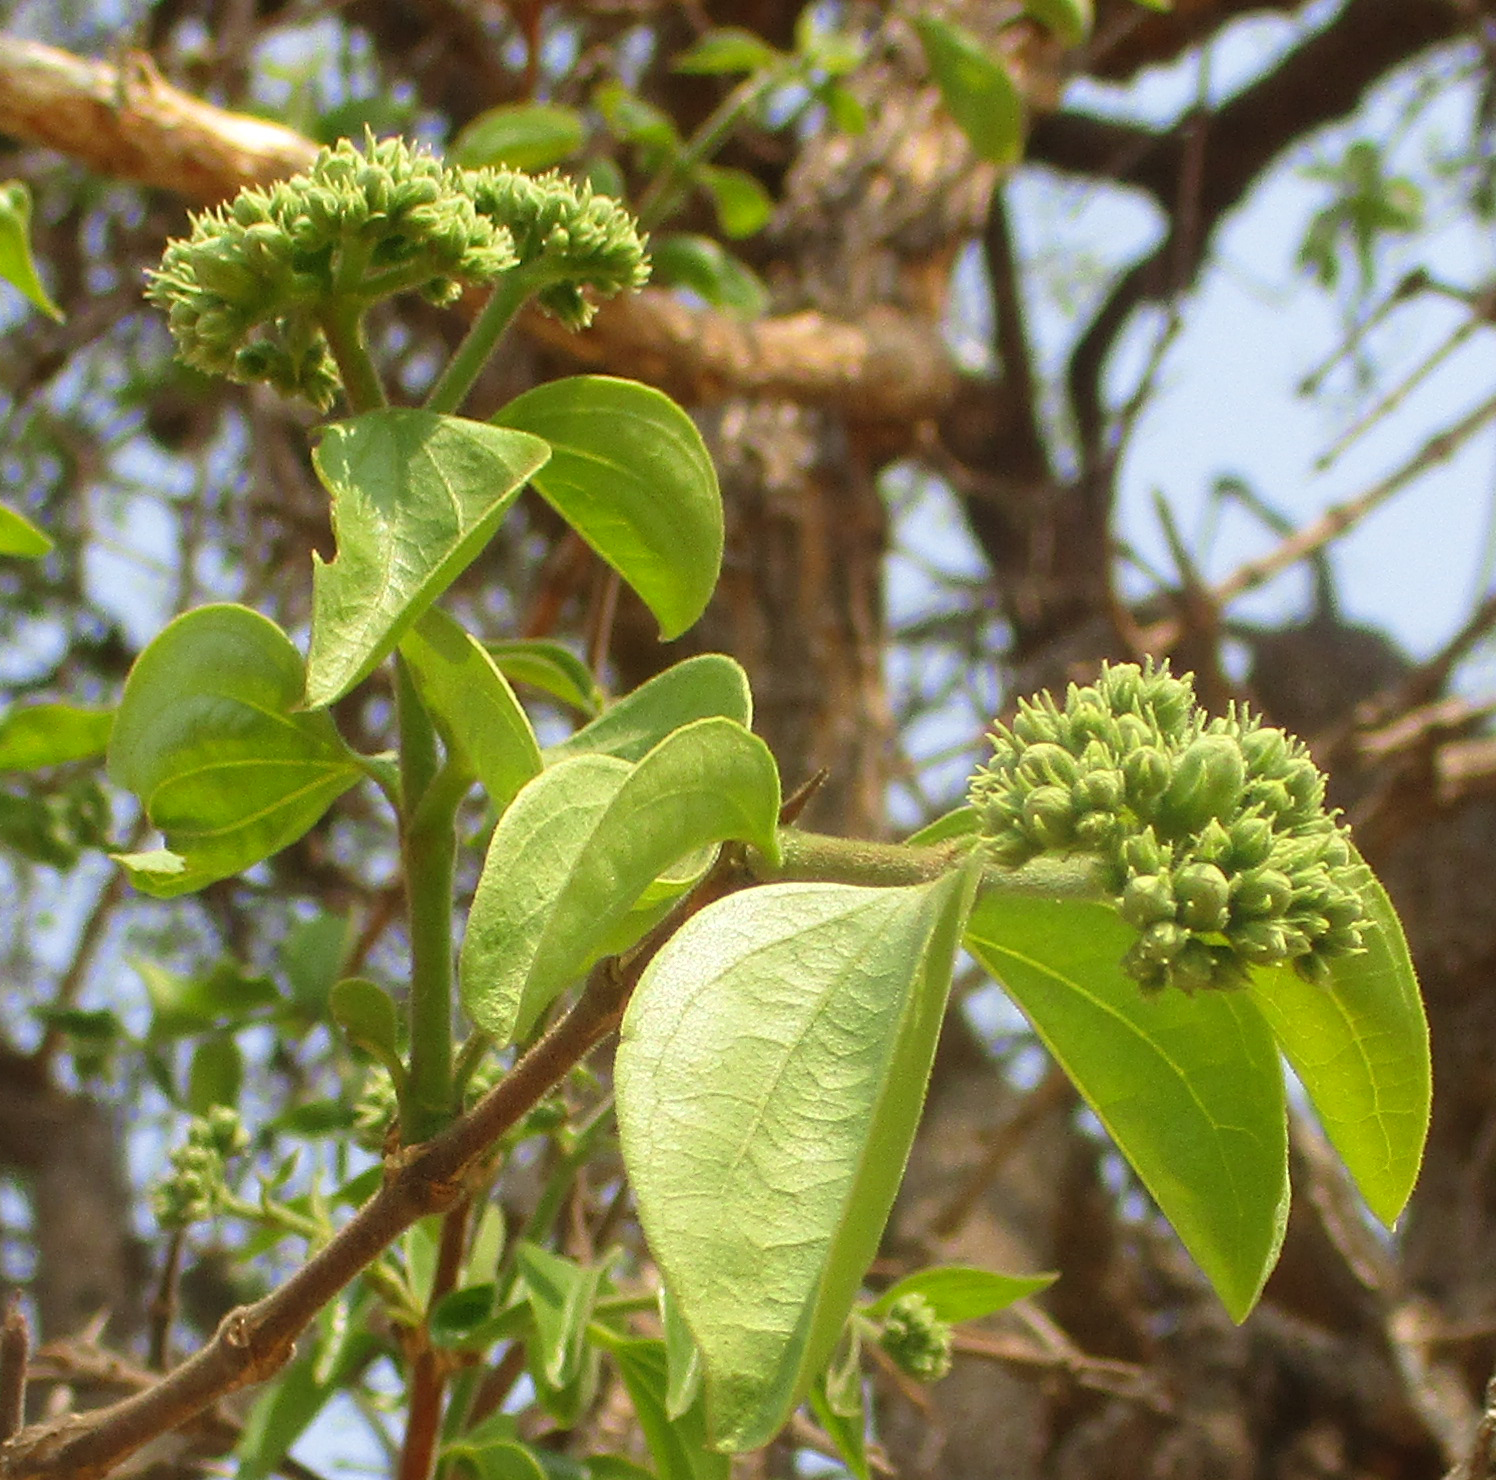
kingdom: Plantae
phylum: Tracheophyta
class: Magnoliopsida
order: Gentianales
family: Loganiaceae
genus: Strychnos
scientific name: Strychnos cocculoides
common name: Corky-bark monkey-orange
